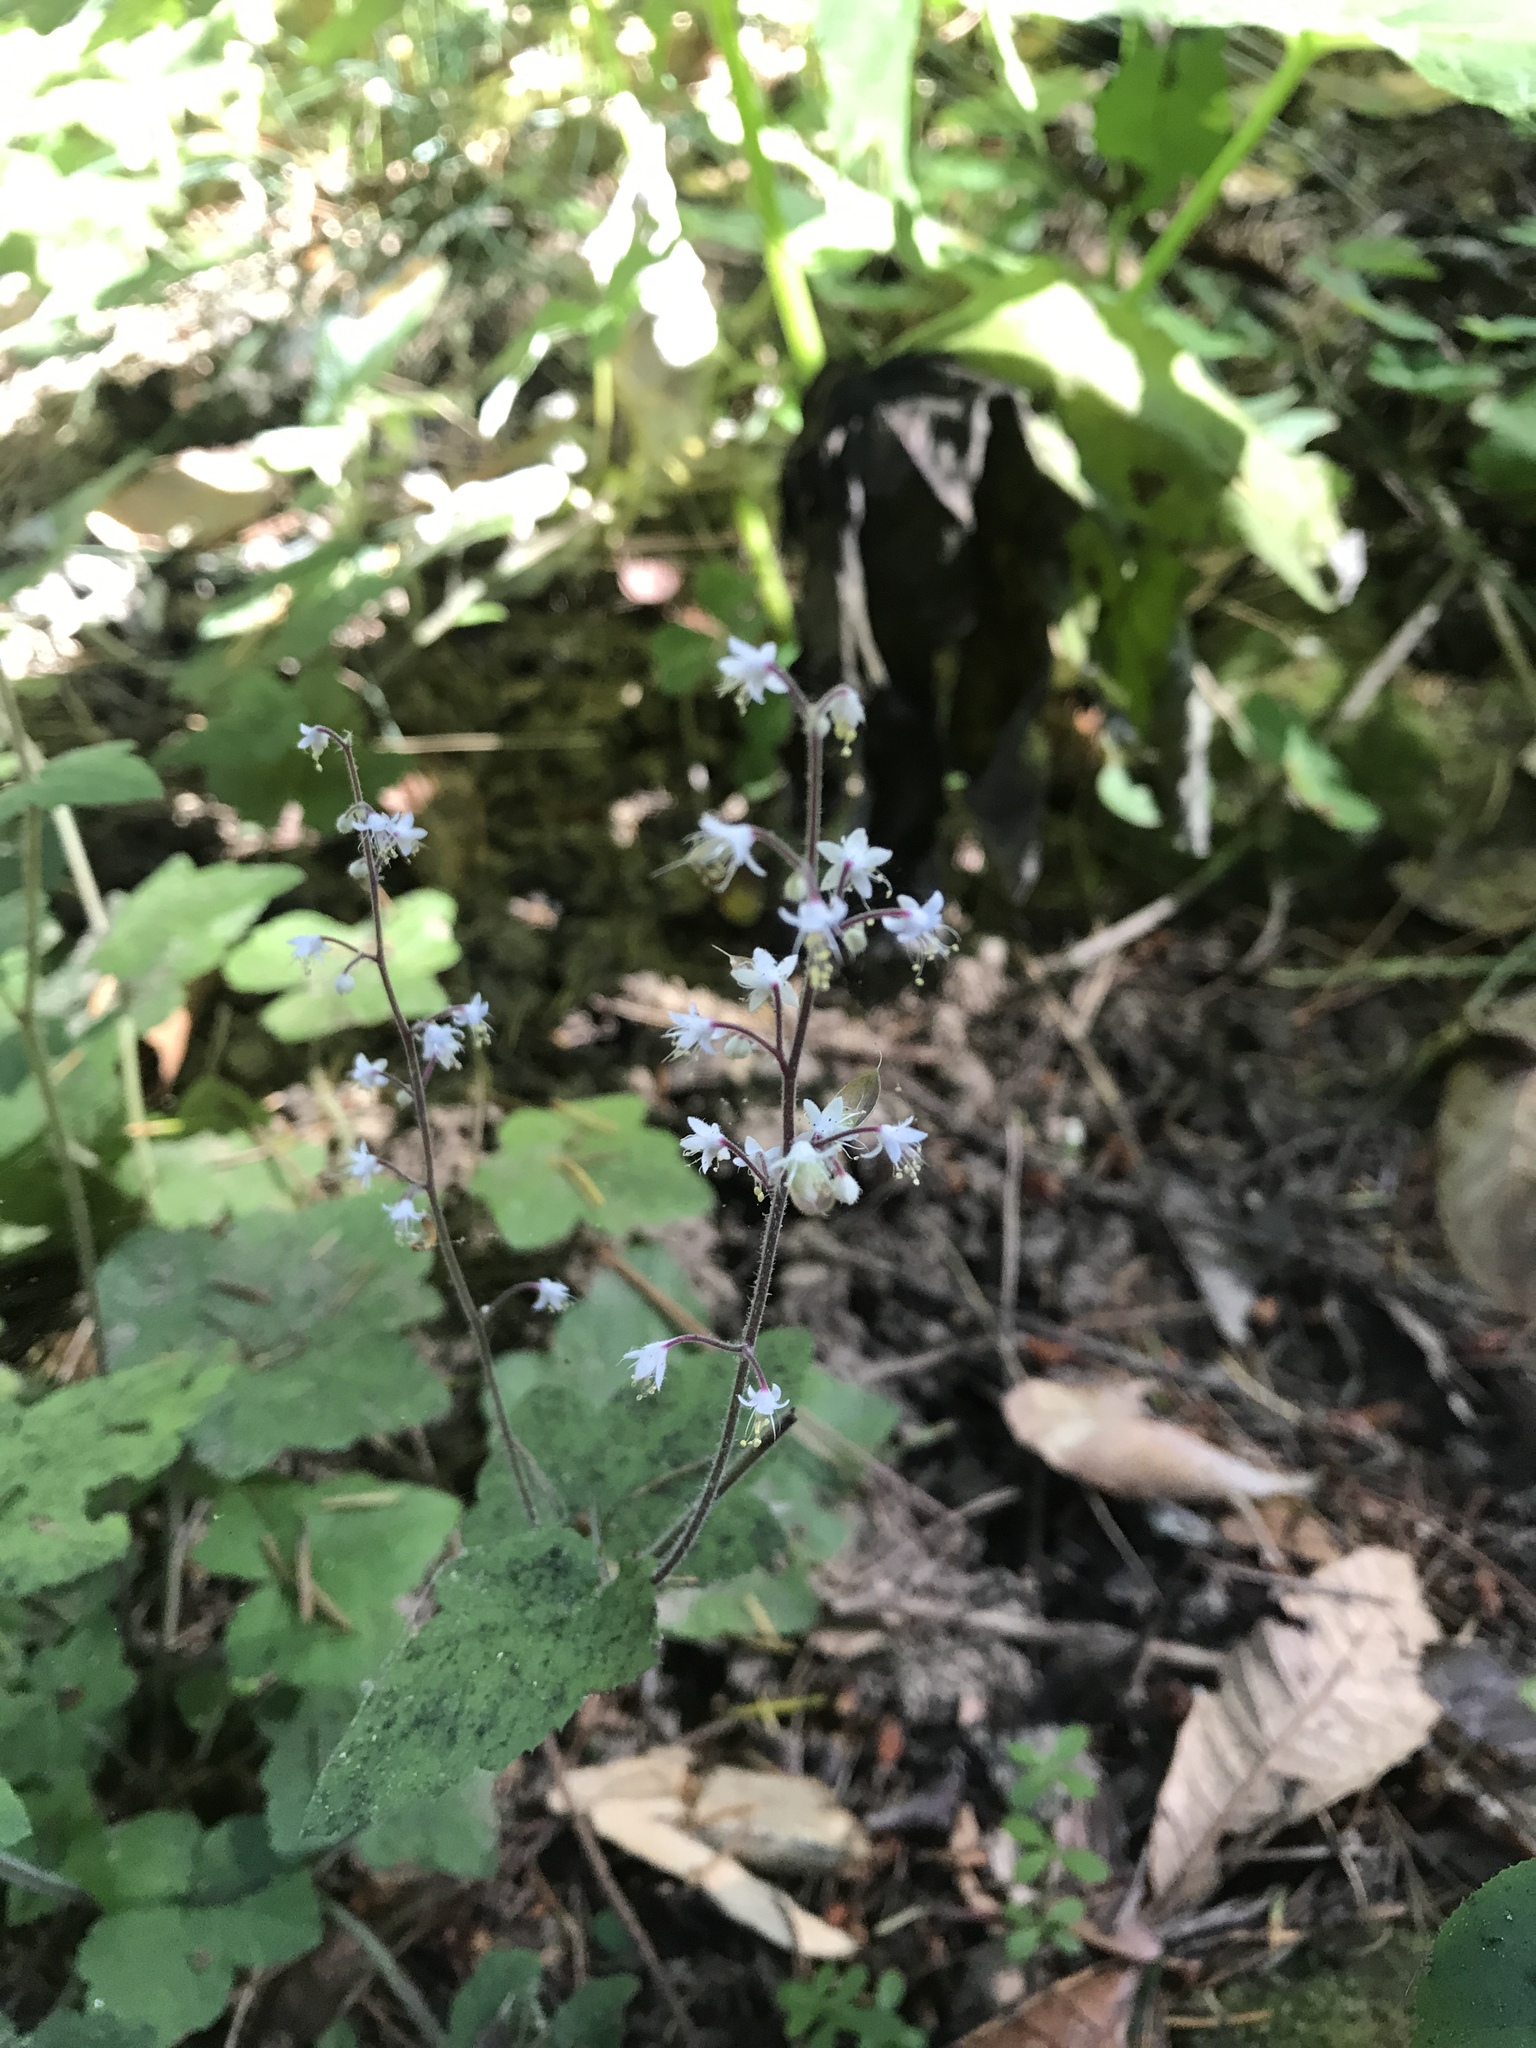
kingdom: Plantae
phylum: Tracheophyta
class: Magnoliopsida
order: Saxifragales
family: Saxifragaceae
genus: Tiarella
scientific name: Tiarella trifoliata
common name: Sugar-scoop
